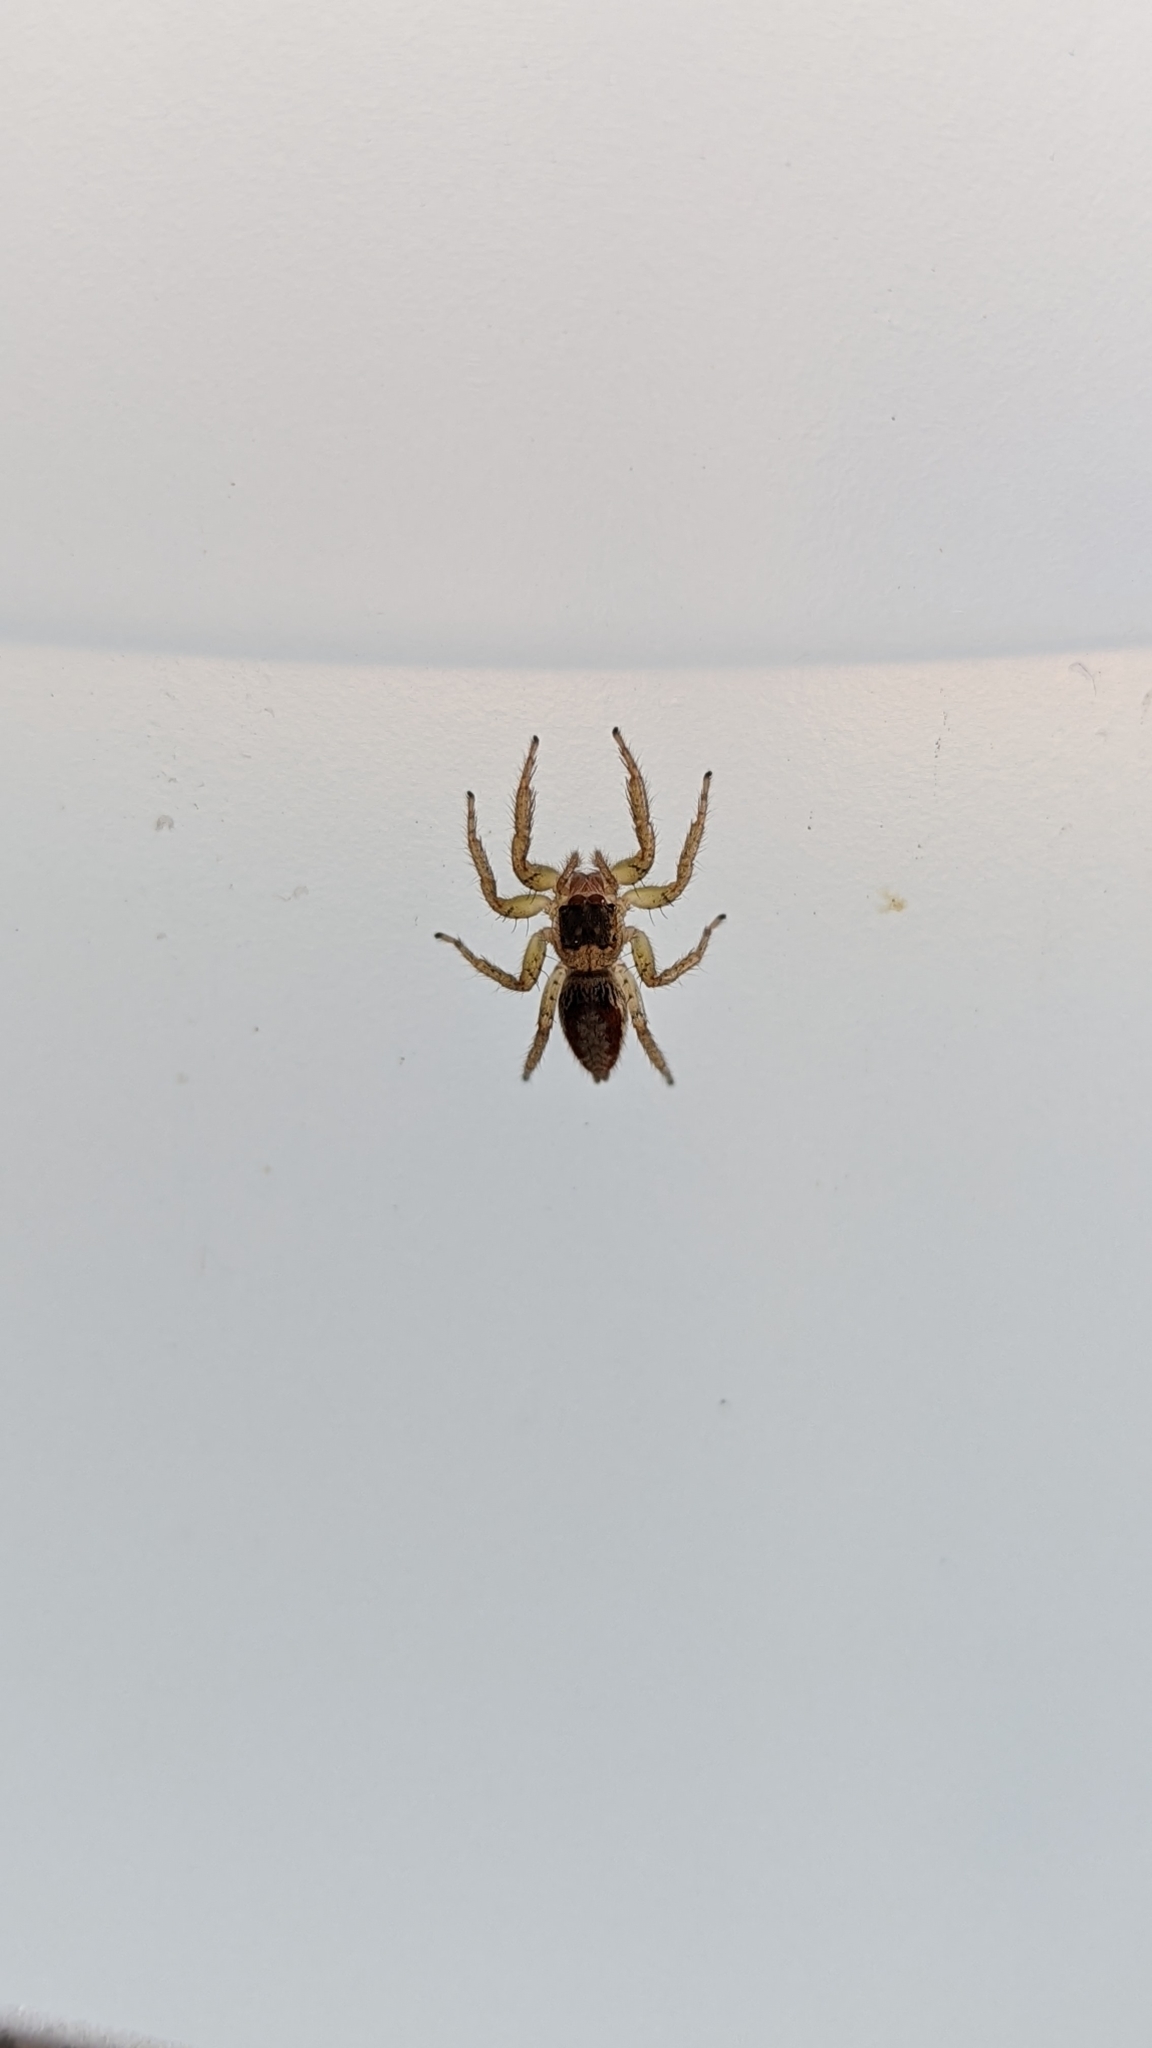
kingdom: Animalia
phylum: Arthropoda
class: Arachnida
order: Araneae
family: Salticidae
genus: Maevia
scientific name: Maevia inclemens
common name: Dimorphic jumper
